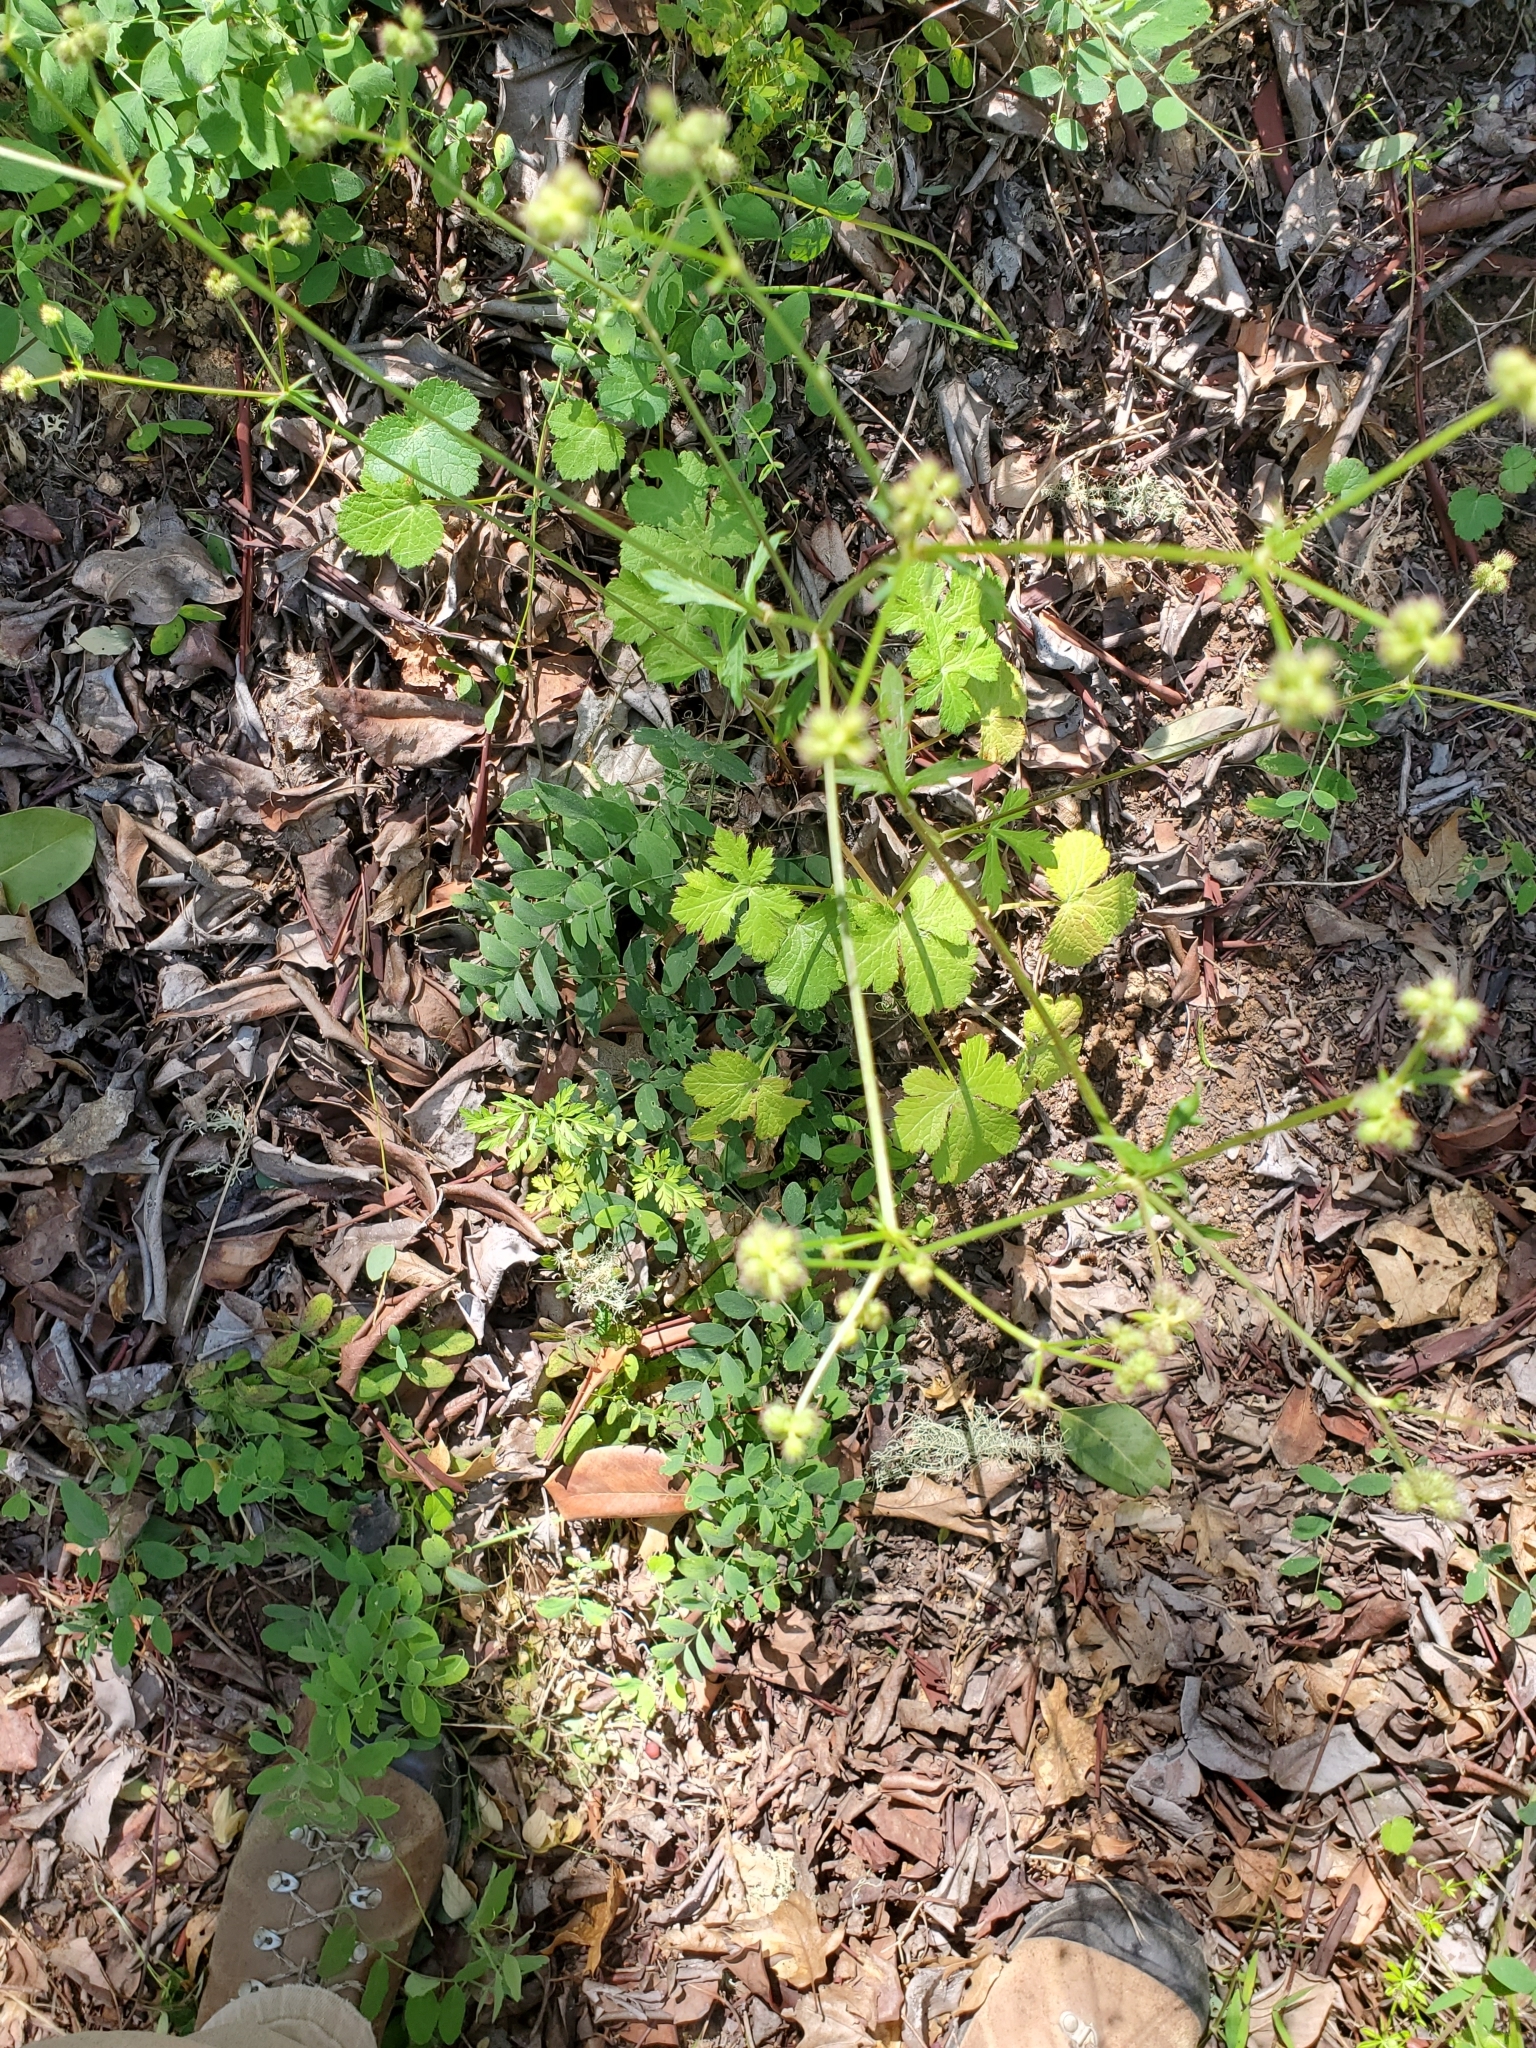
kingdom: Plantae
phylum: Tracheophyta
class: Magnoliopsida
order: Apiales
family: Apiaceae
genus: Sanicula
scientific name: Sanicula crassicaulis
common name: Western snakeroot
